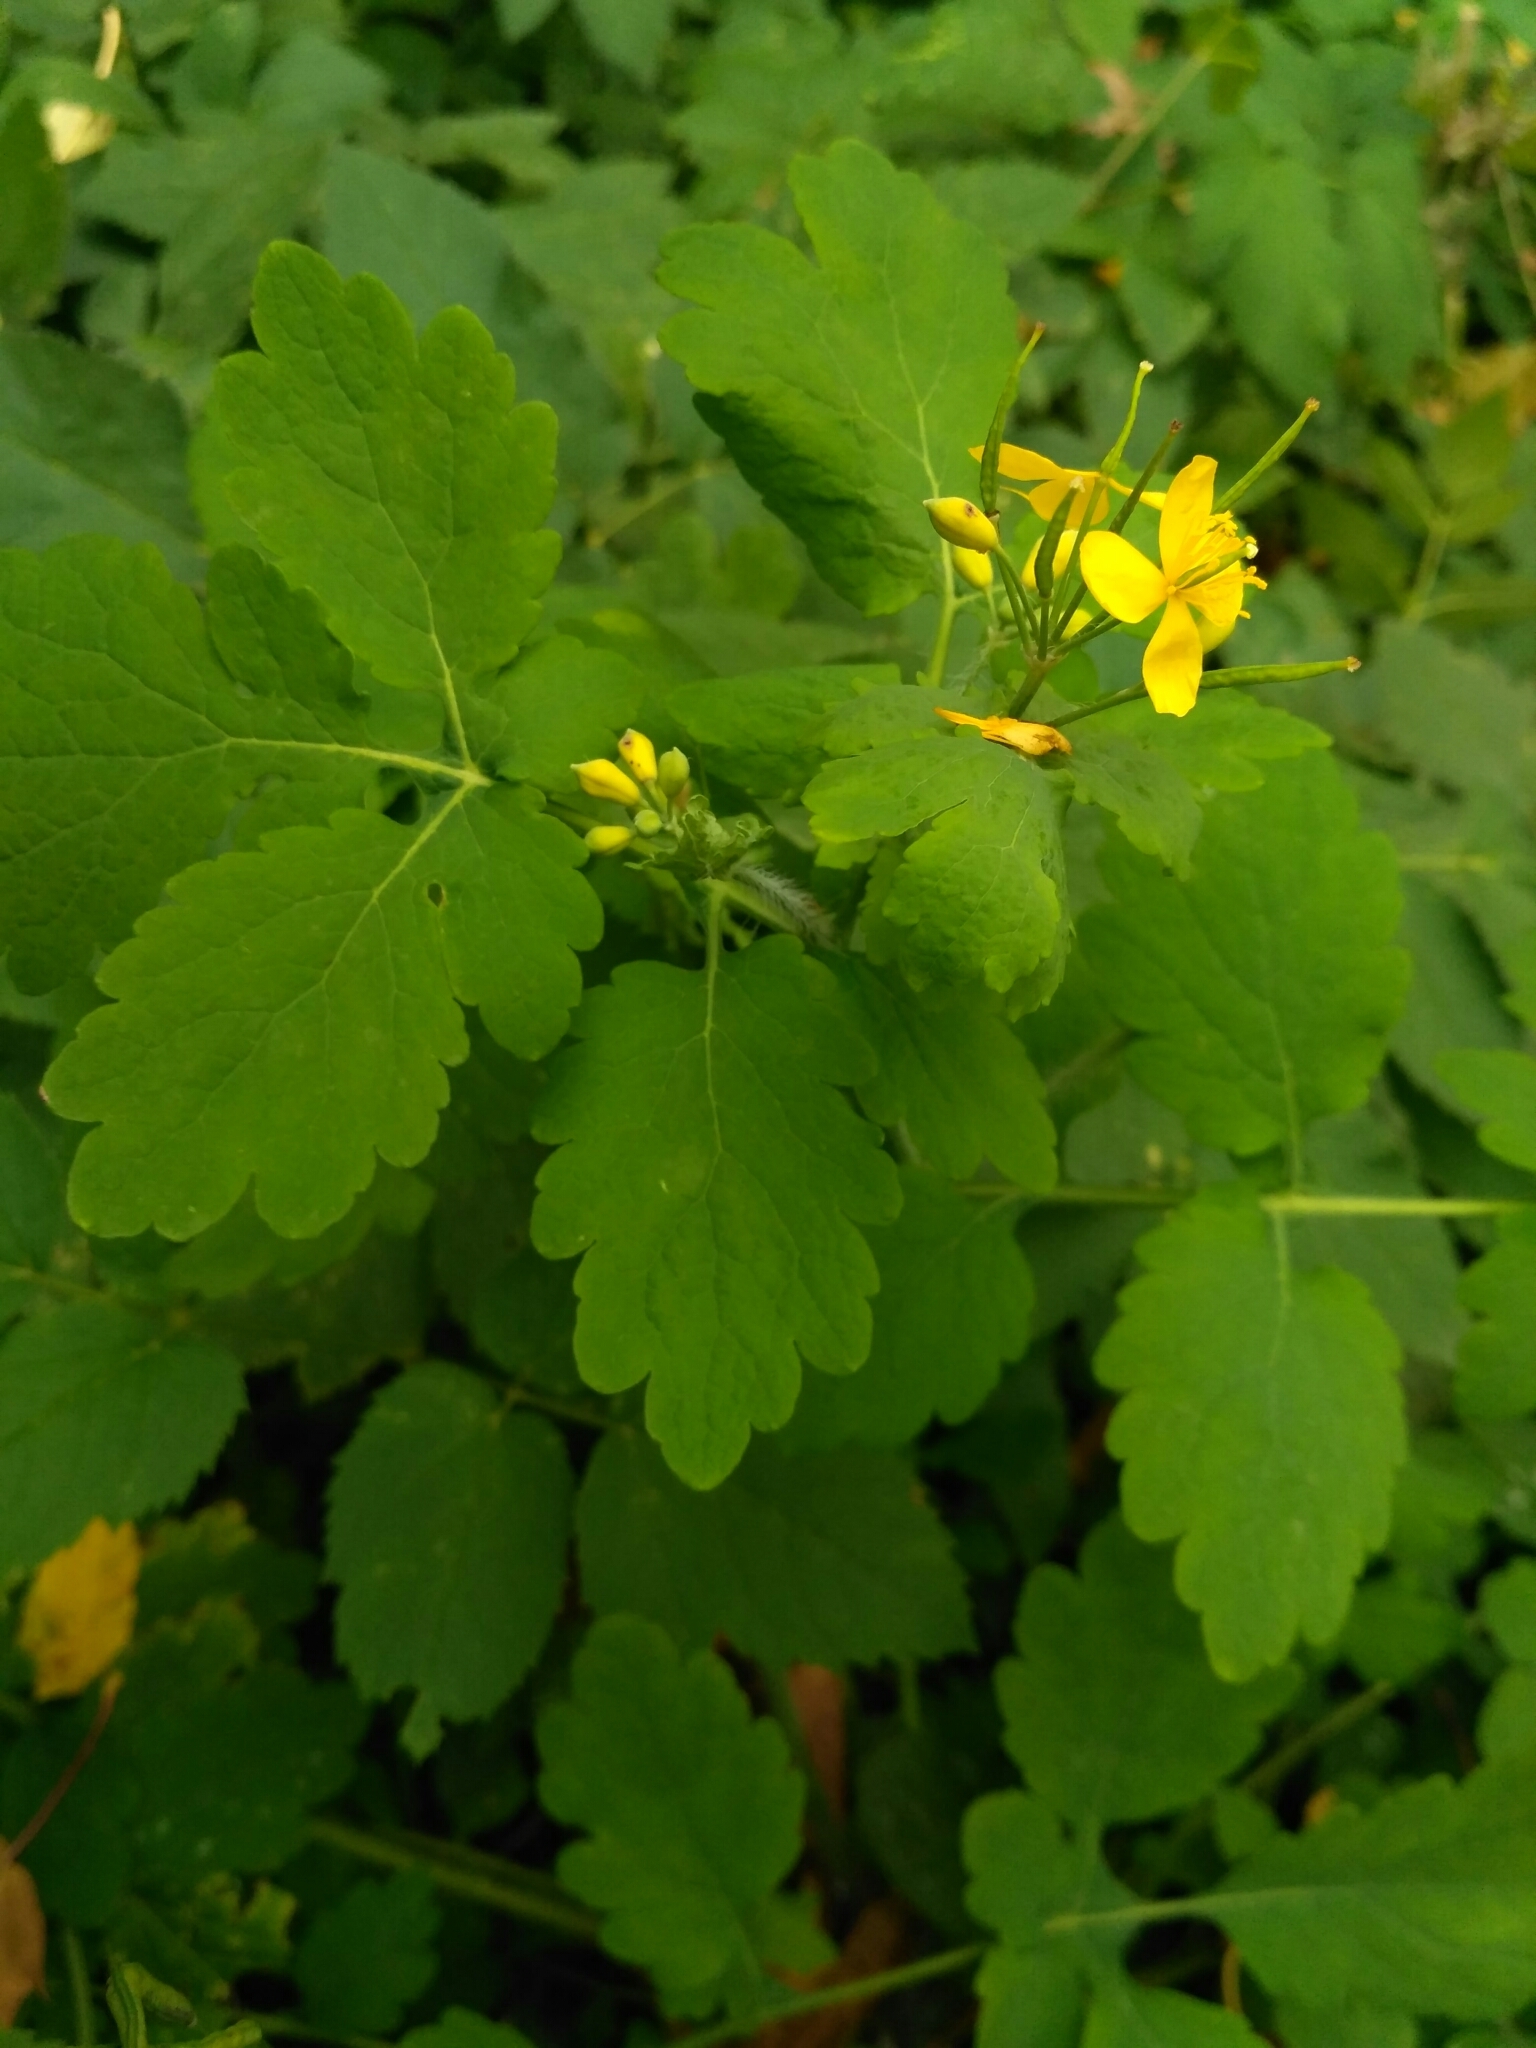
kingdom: Plantae
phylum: Tracheophyta
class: Magnoliopsida
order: Ranunculales
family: Papaveraceae
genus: Chelidonium
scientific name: Chelidonium majus
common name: Greater celandine
